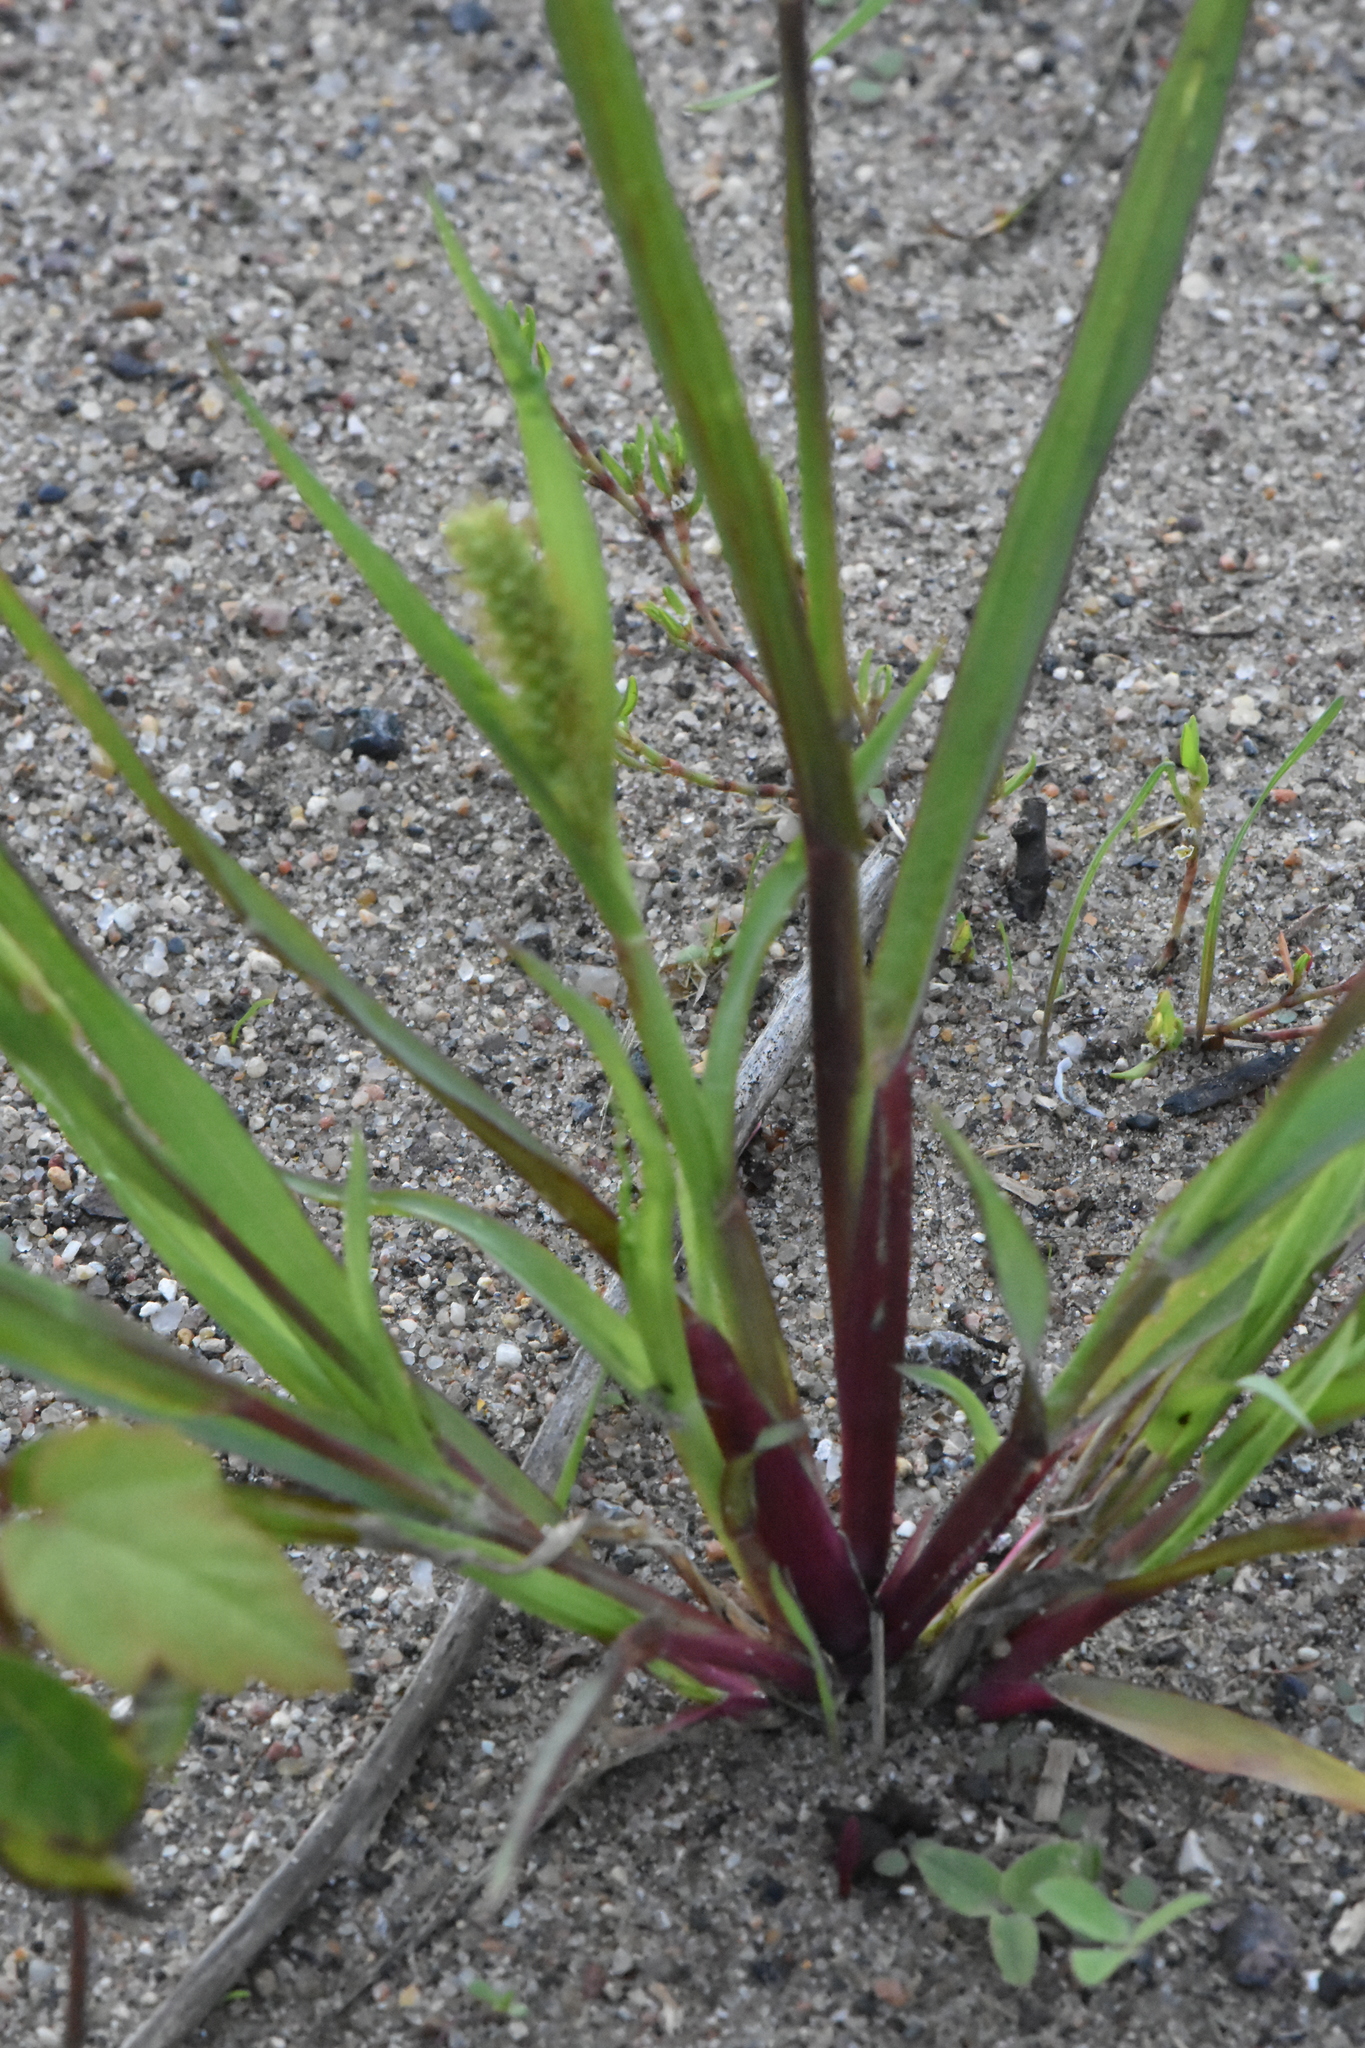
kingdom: Plantae
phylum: Tracheophyta
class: Liliopsida
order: Poales
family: Poaceae
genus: Setaria
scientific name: Setaria pumila
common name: Yellow bristle-grass
